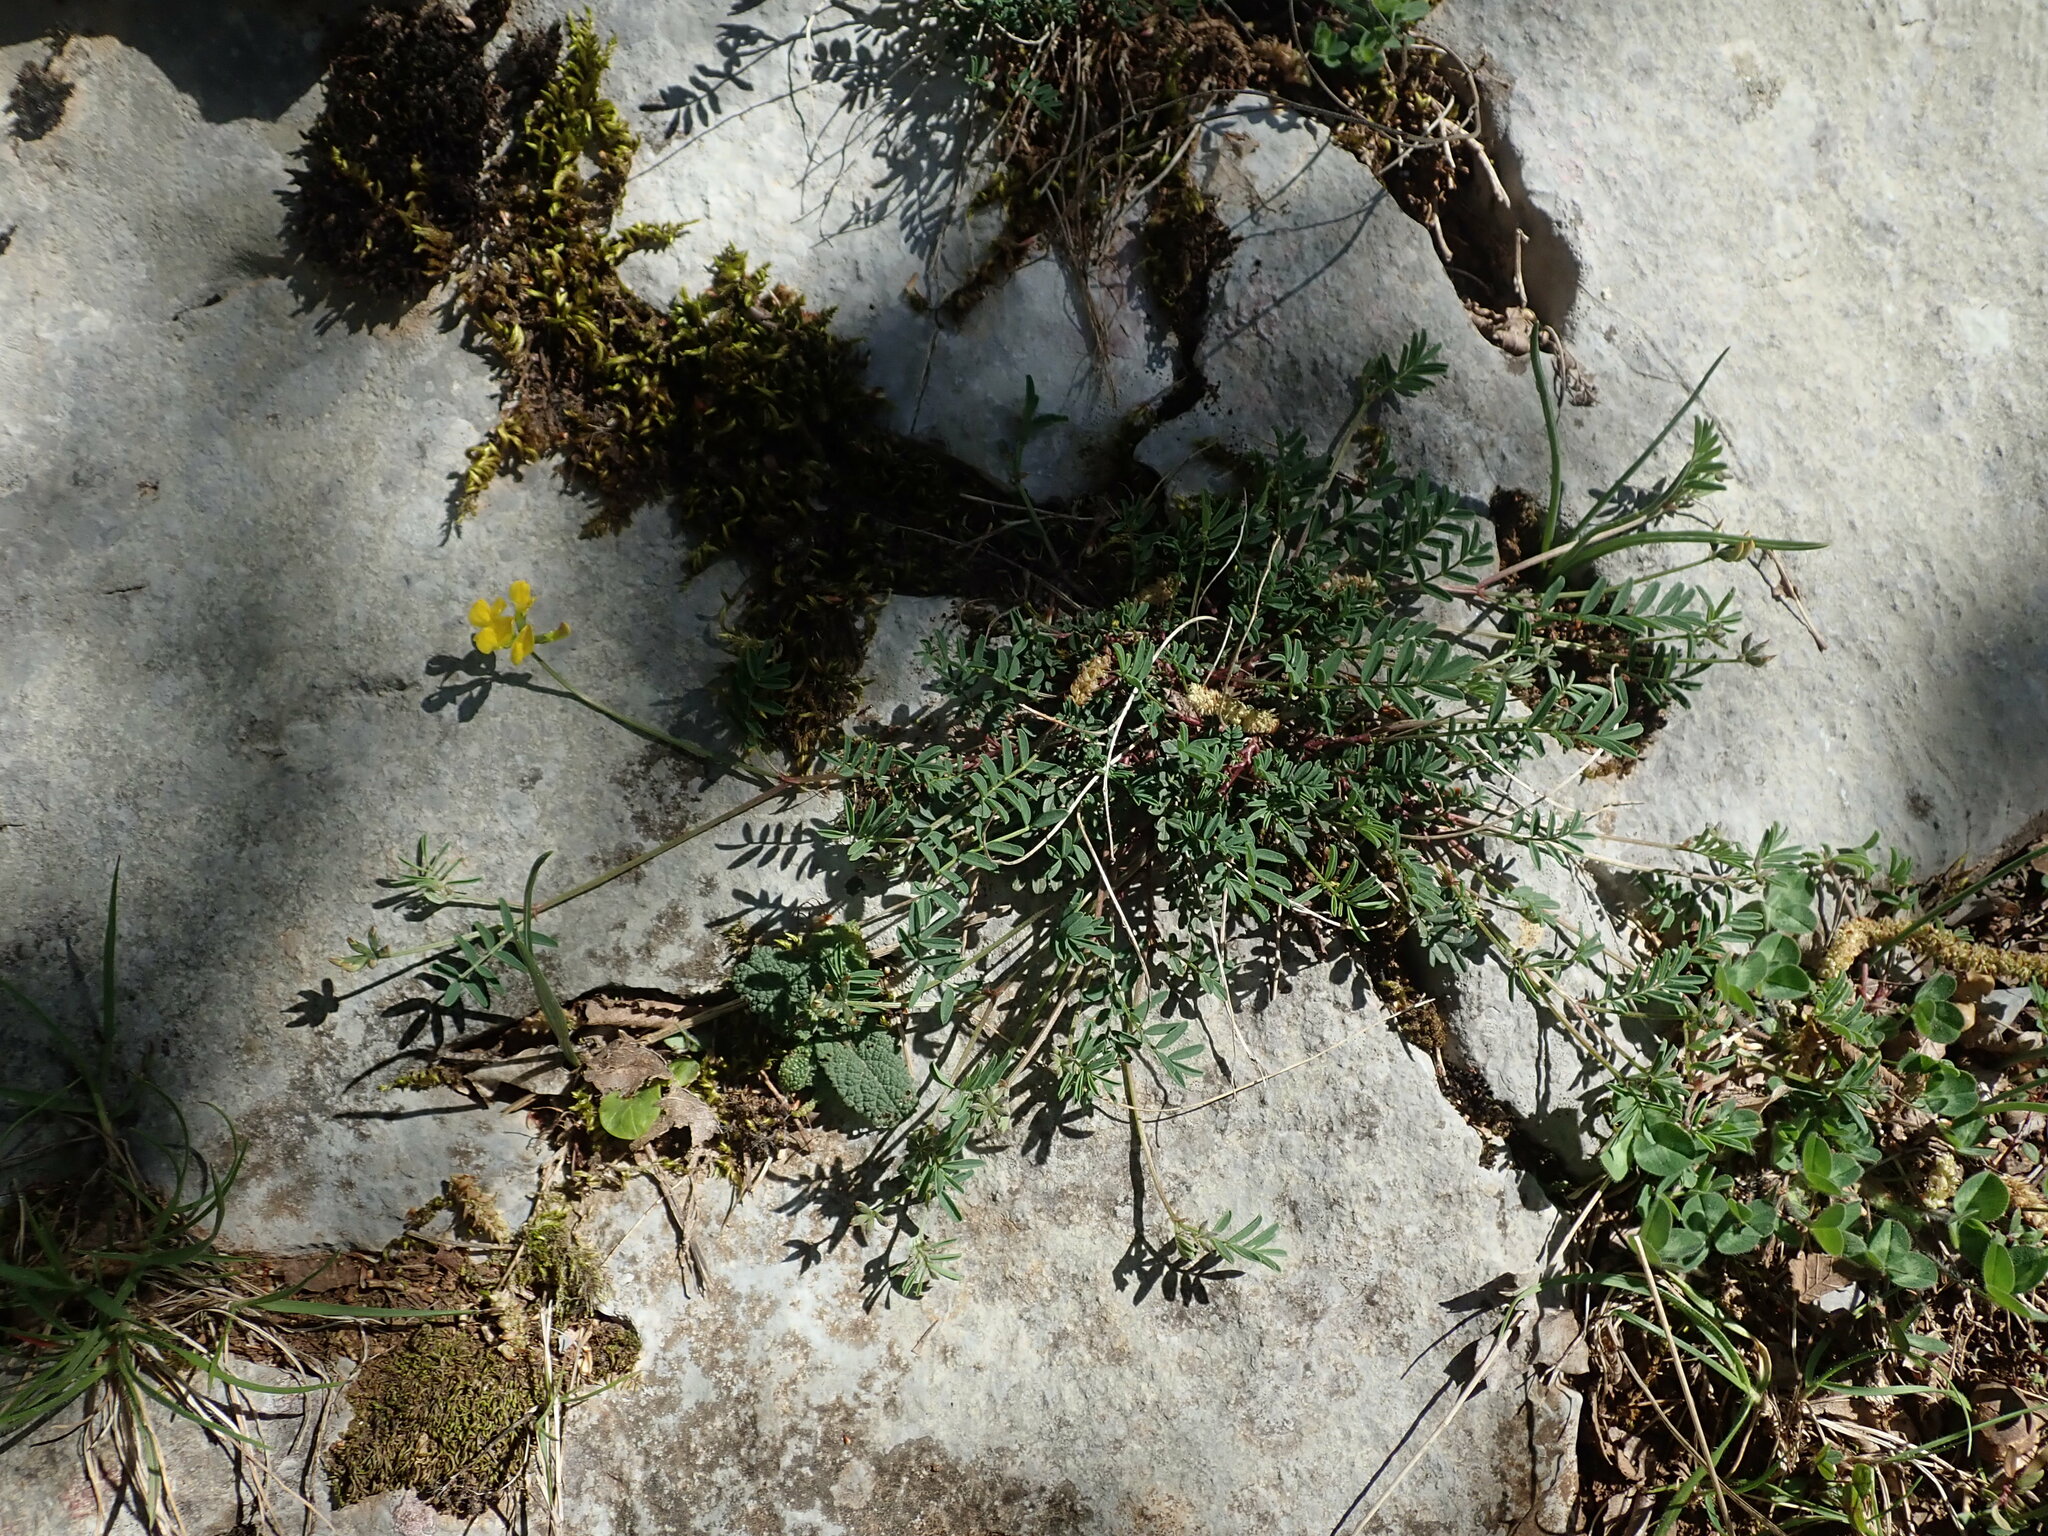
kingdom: Plantae
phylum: Tracheophyta
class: Magnoliopsida
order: Fabales
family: Fabaceae
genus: Hippocrepis
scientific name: Hippocrepis comosa
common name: Horseshoe vetch
